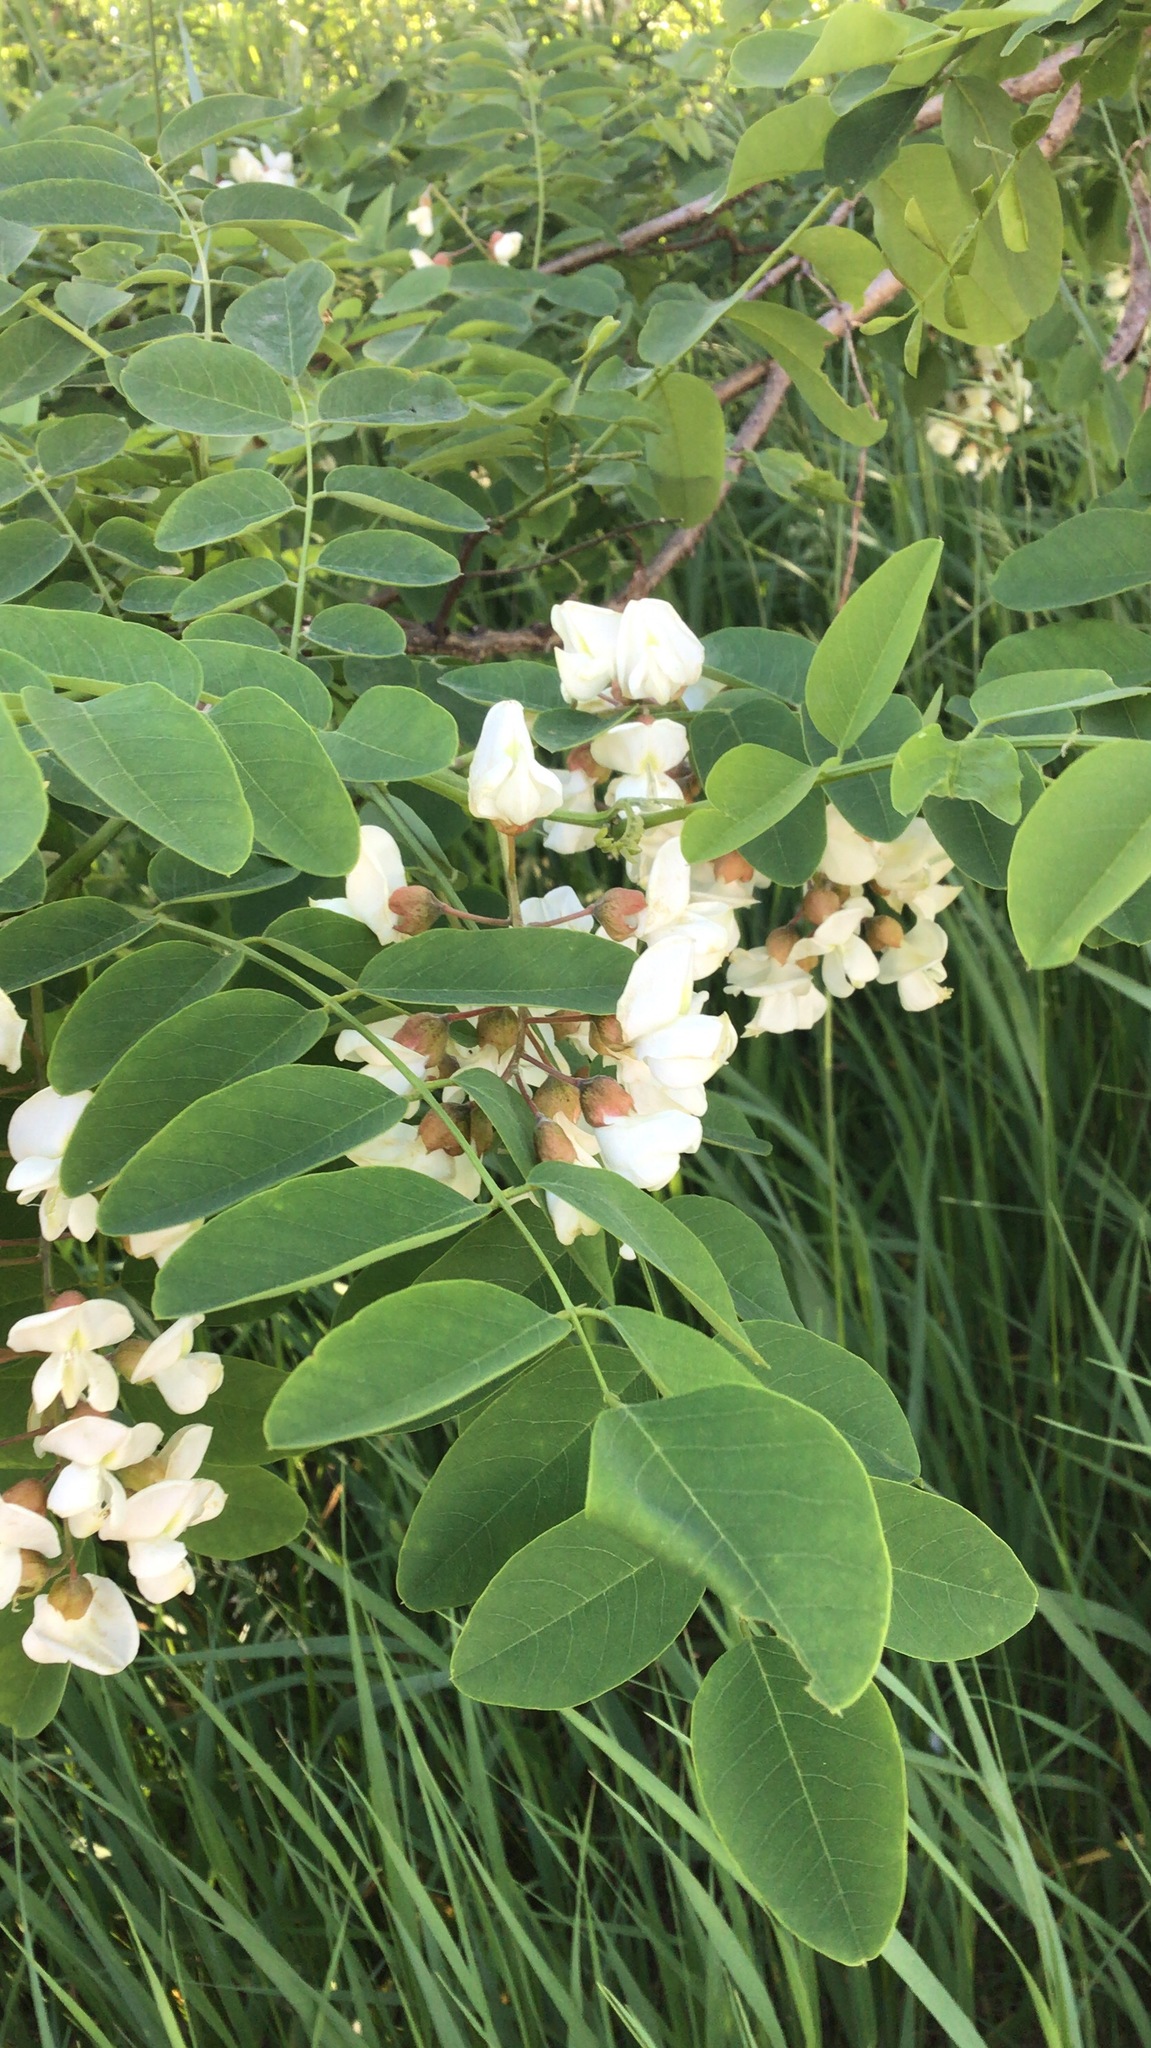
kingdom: Plantae
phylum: Tracheophyta
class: Magnoliopsida
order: Fabales
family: Fabaceae
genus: Robinia
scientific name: Robinia pseudoacacia
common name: Black locust
